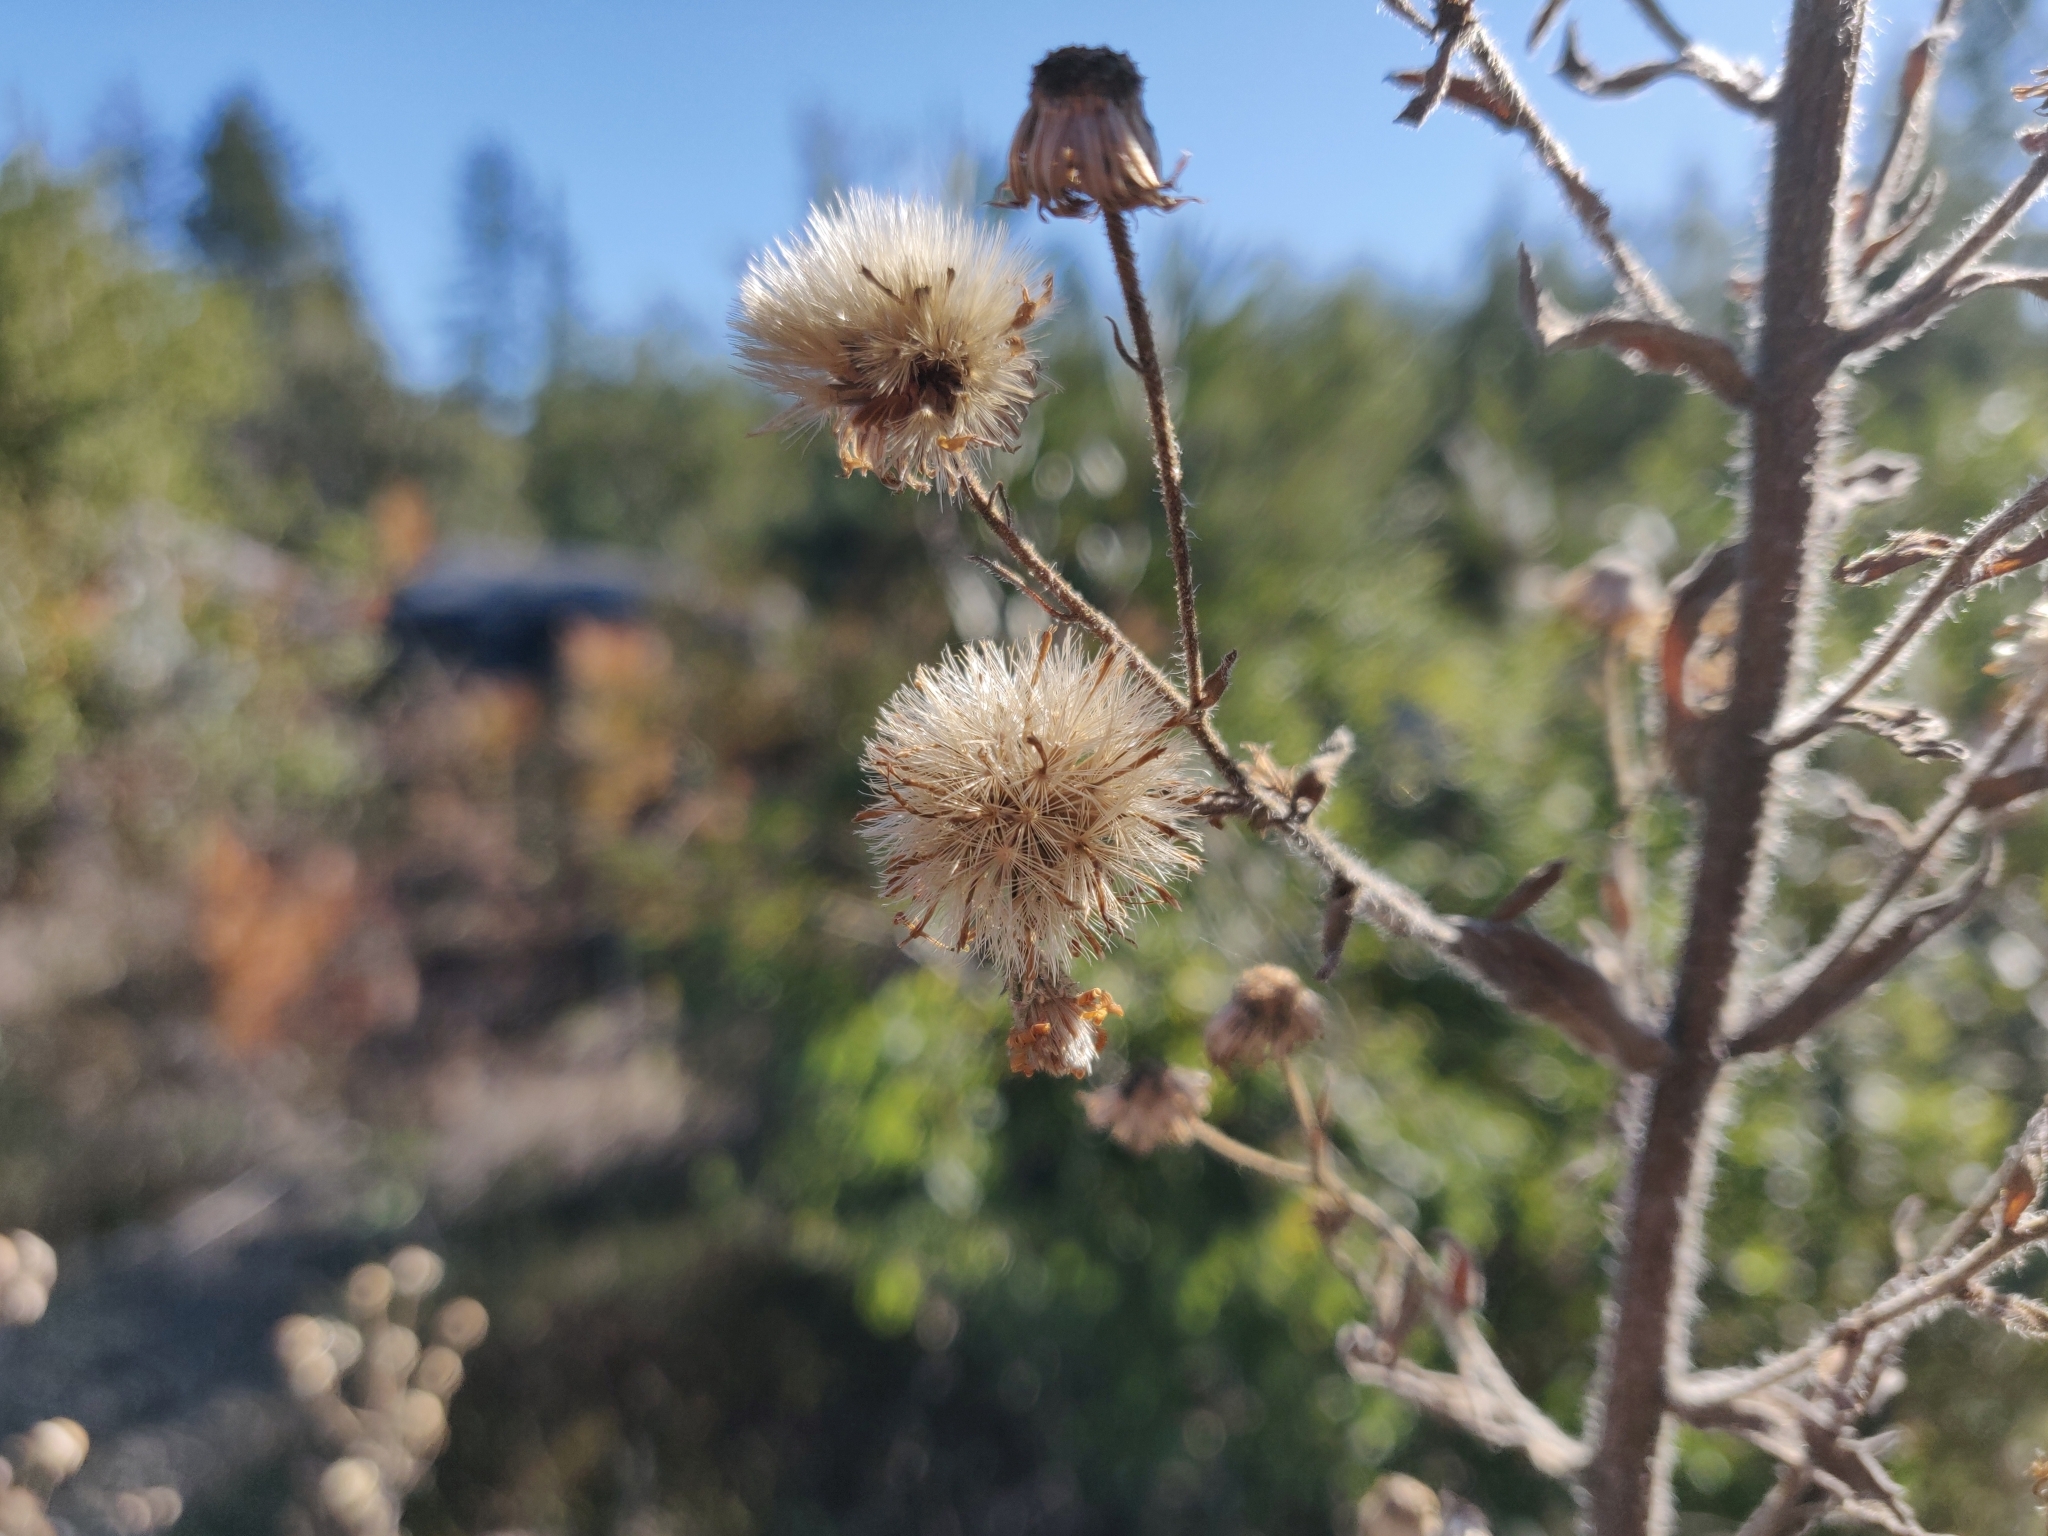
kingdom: Plantae
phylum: Tracheophyta
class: Magnoliopsida
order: Asterales
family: Asteraceae
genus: Heterotheca
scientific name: Heterotheca grandiflora
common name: Telegraphweed
